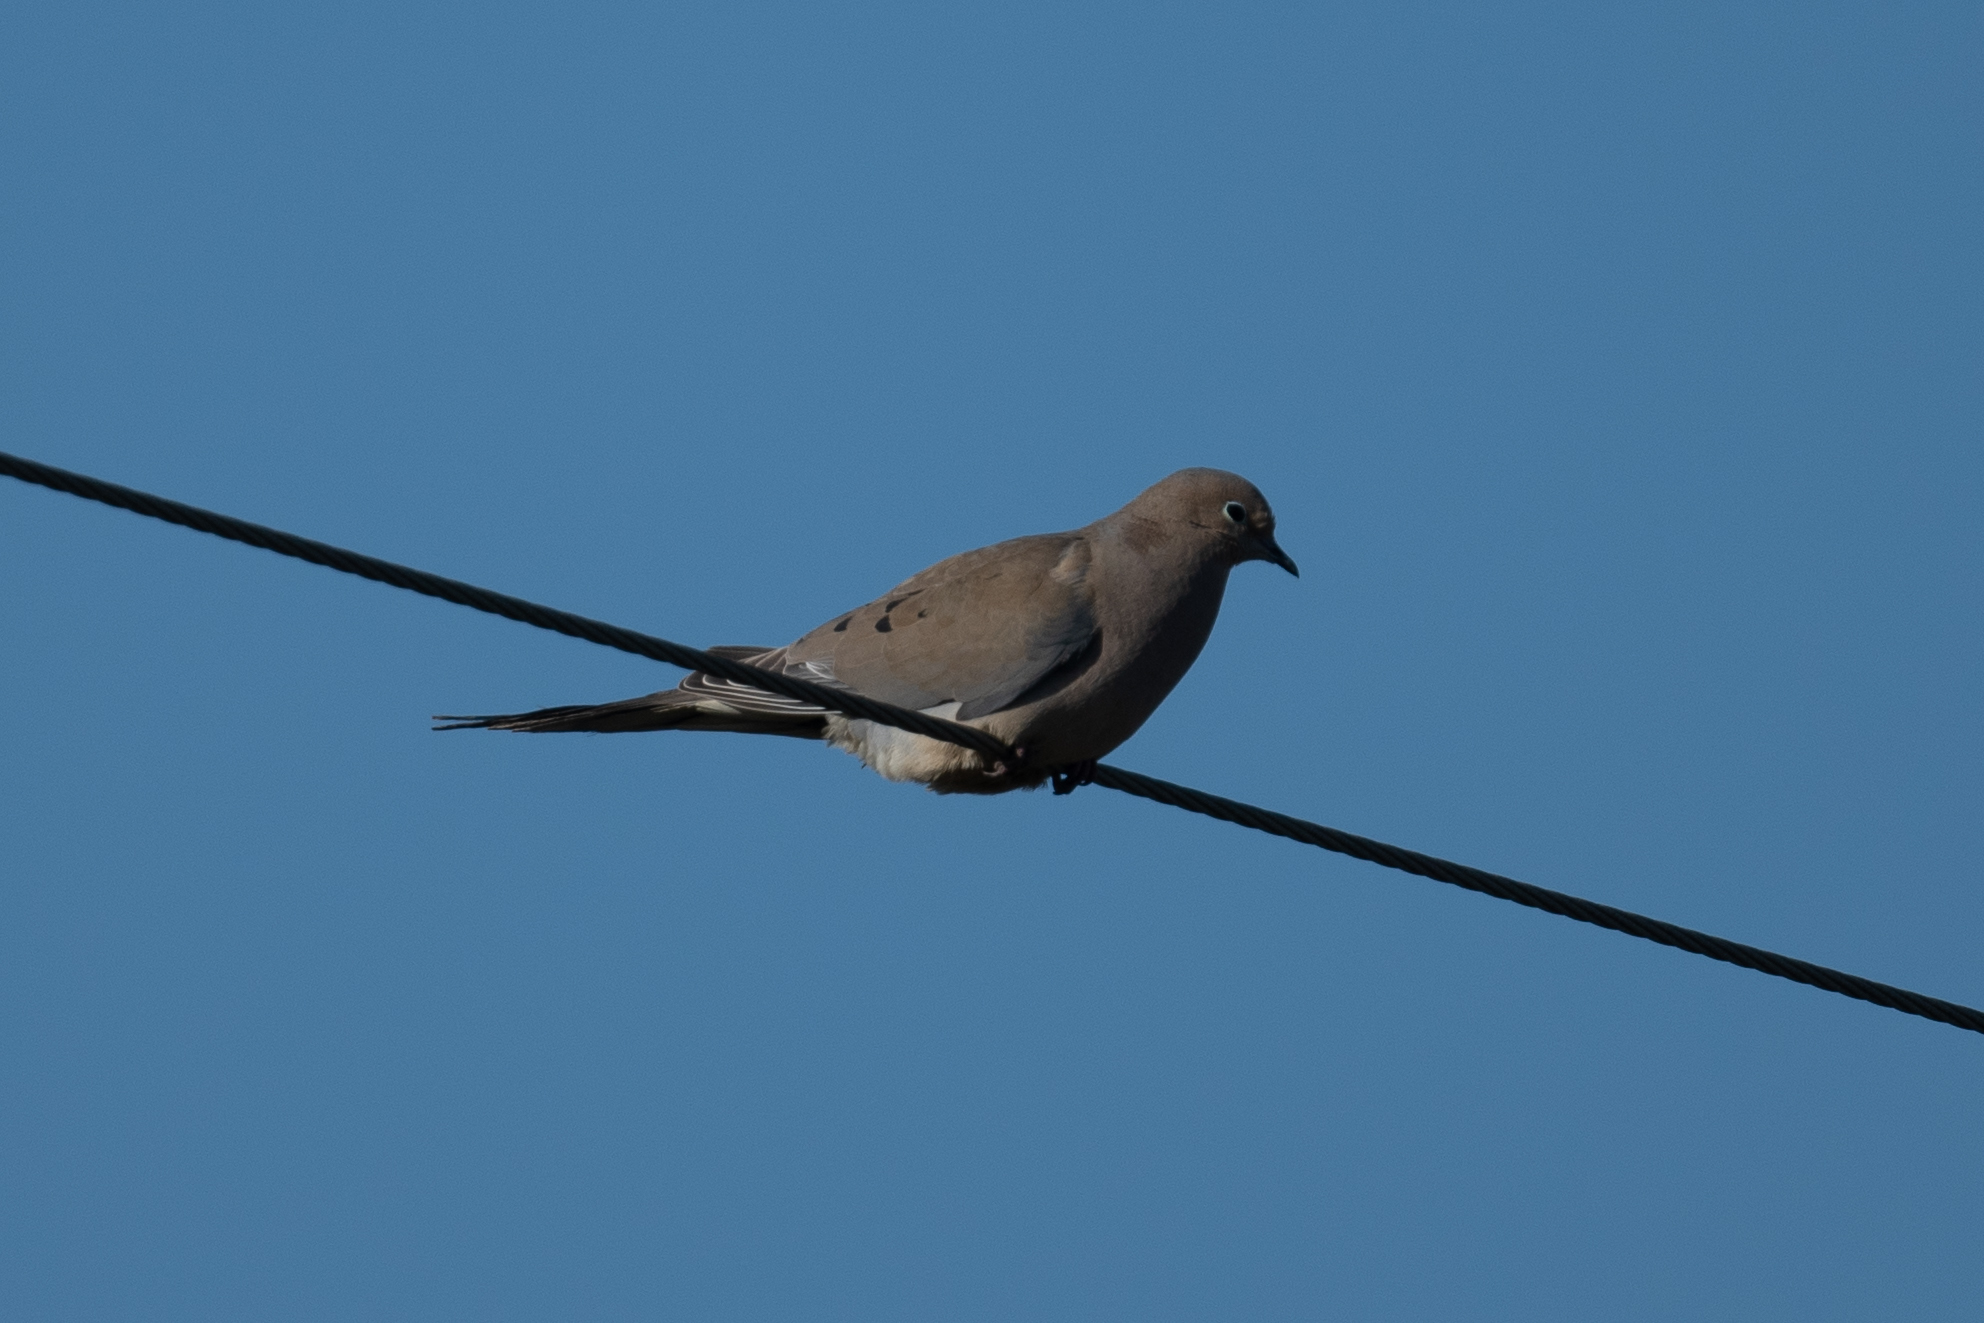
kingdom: Animalia
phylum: Chordata
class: Aves
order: Columbiformes
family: Columbidae
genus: Zenaida
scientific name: Zenaida macroura
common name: Mourning dove
